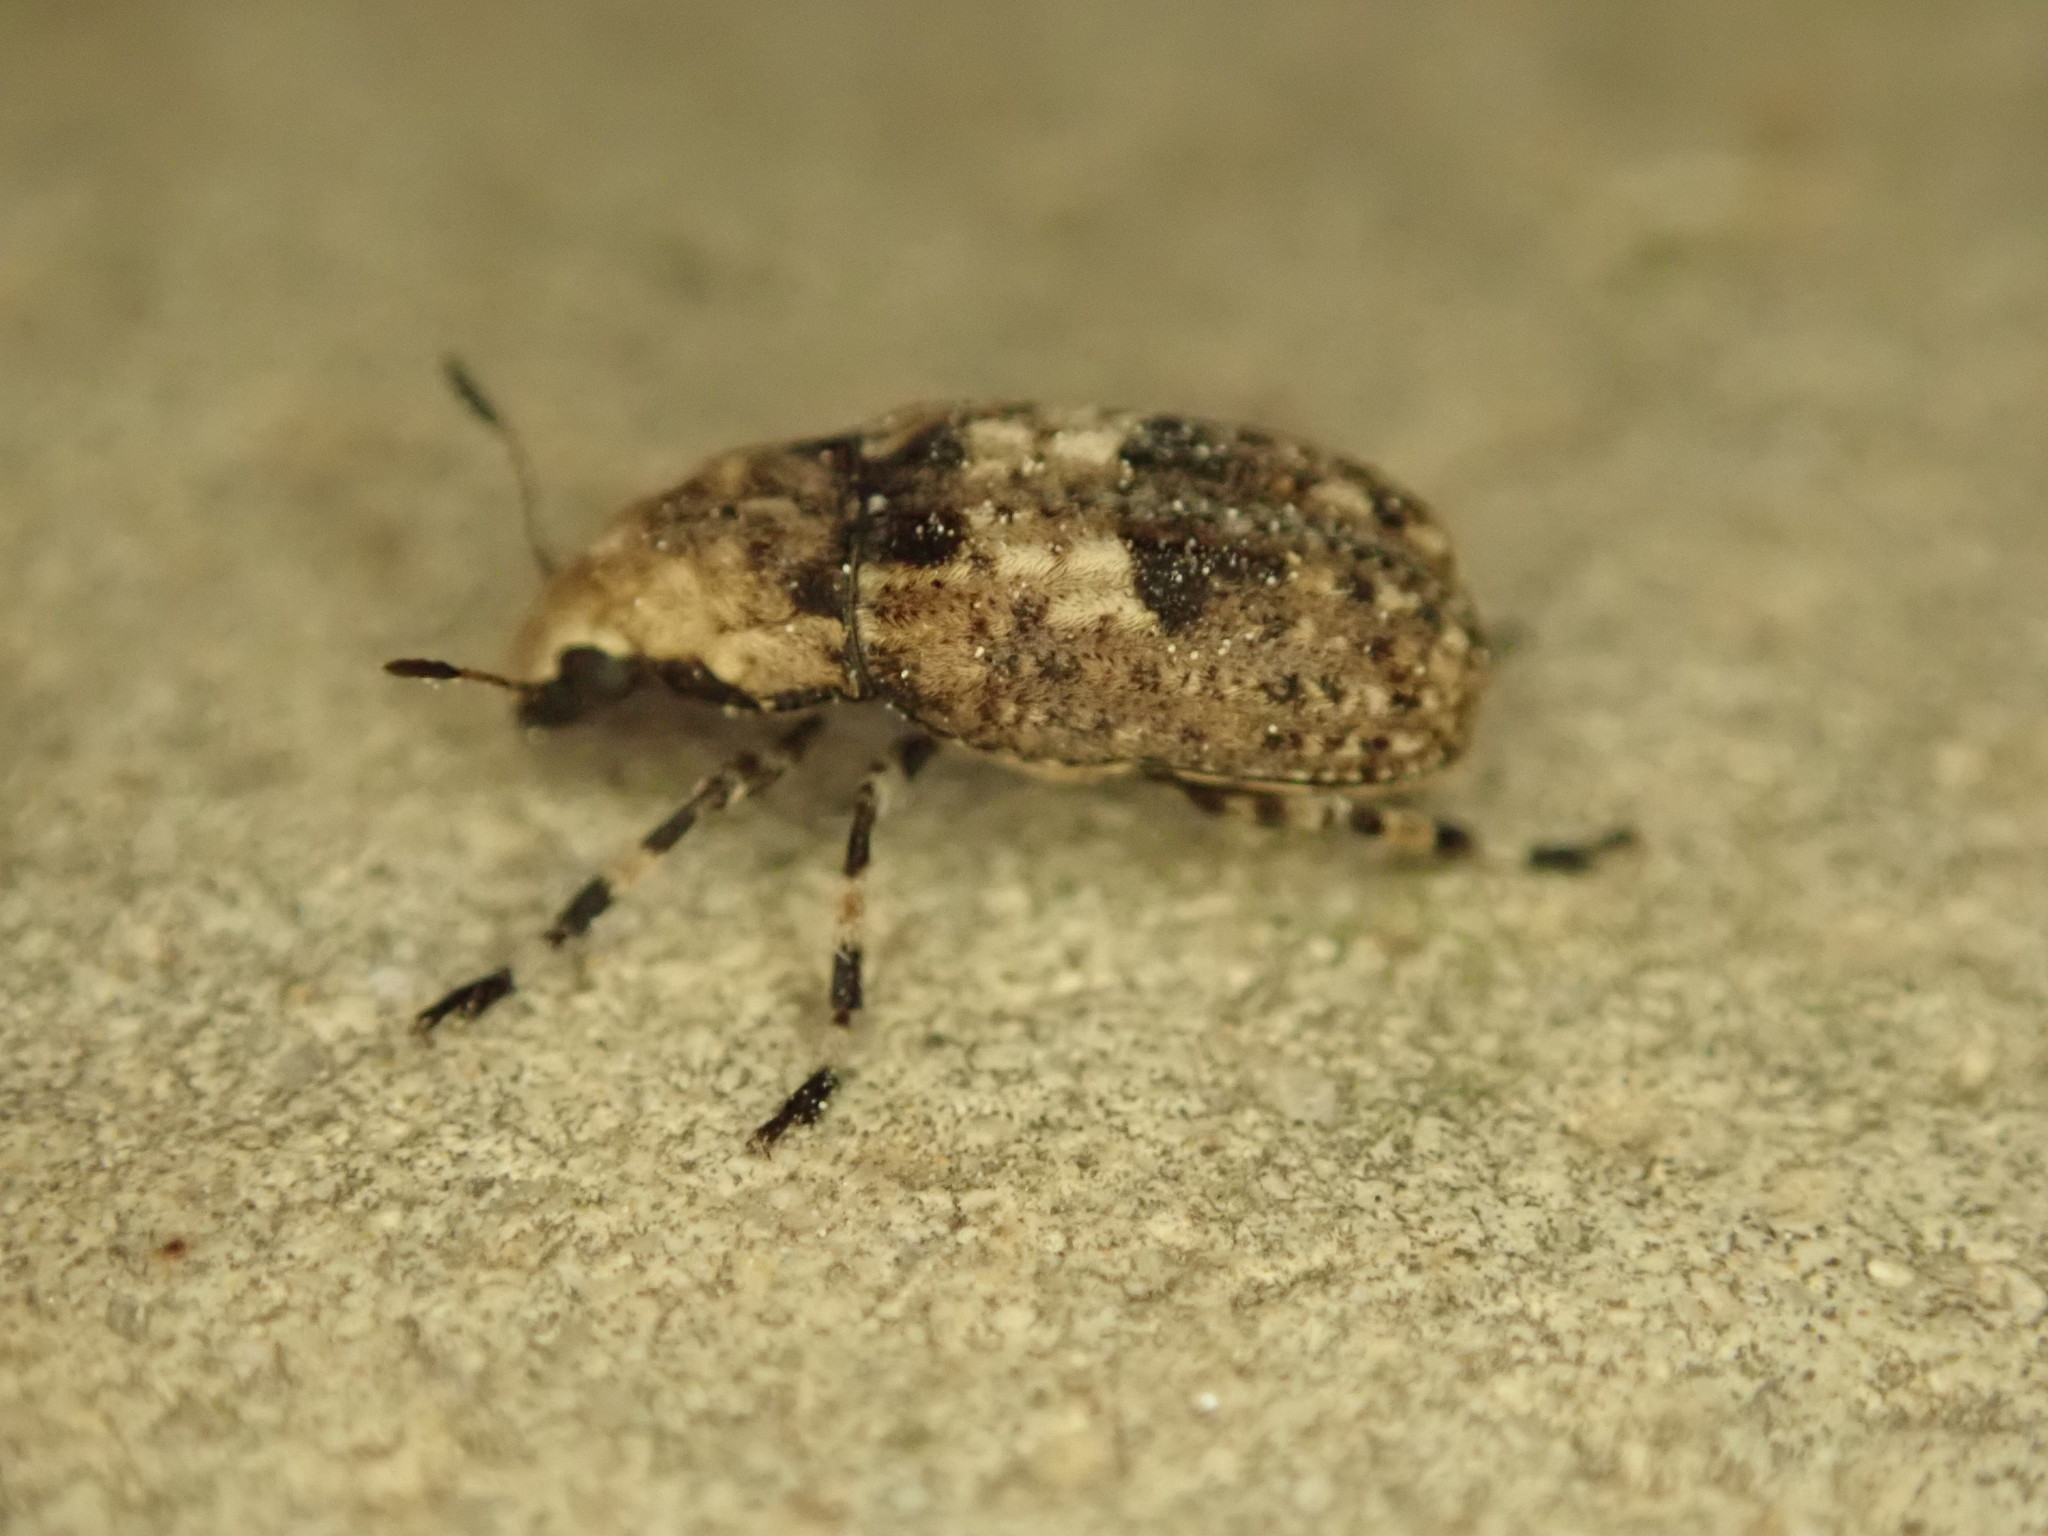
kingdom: Animalia
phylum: Arthropoda
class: Insecta
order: Coleoptera
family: Anthribidae
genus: Euparius
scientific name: Euparius marmoreus
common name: Marbled fungus weevil
